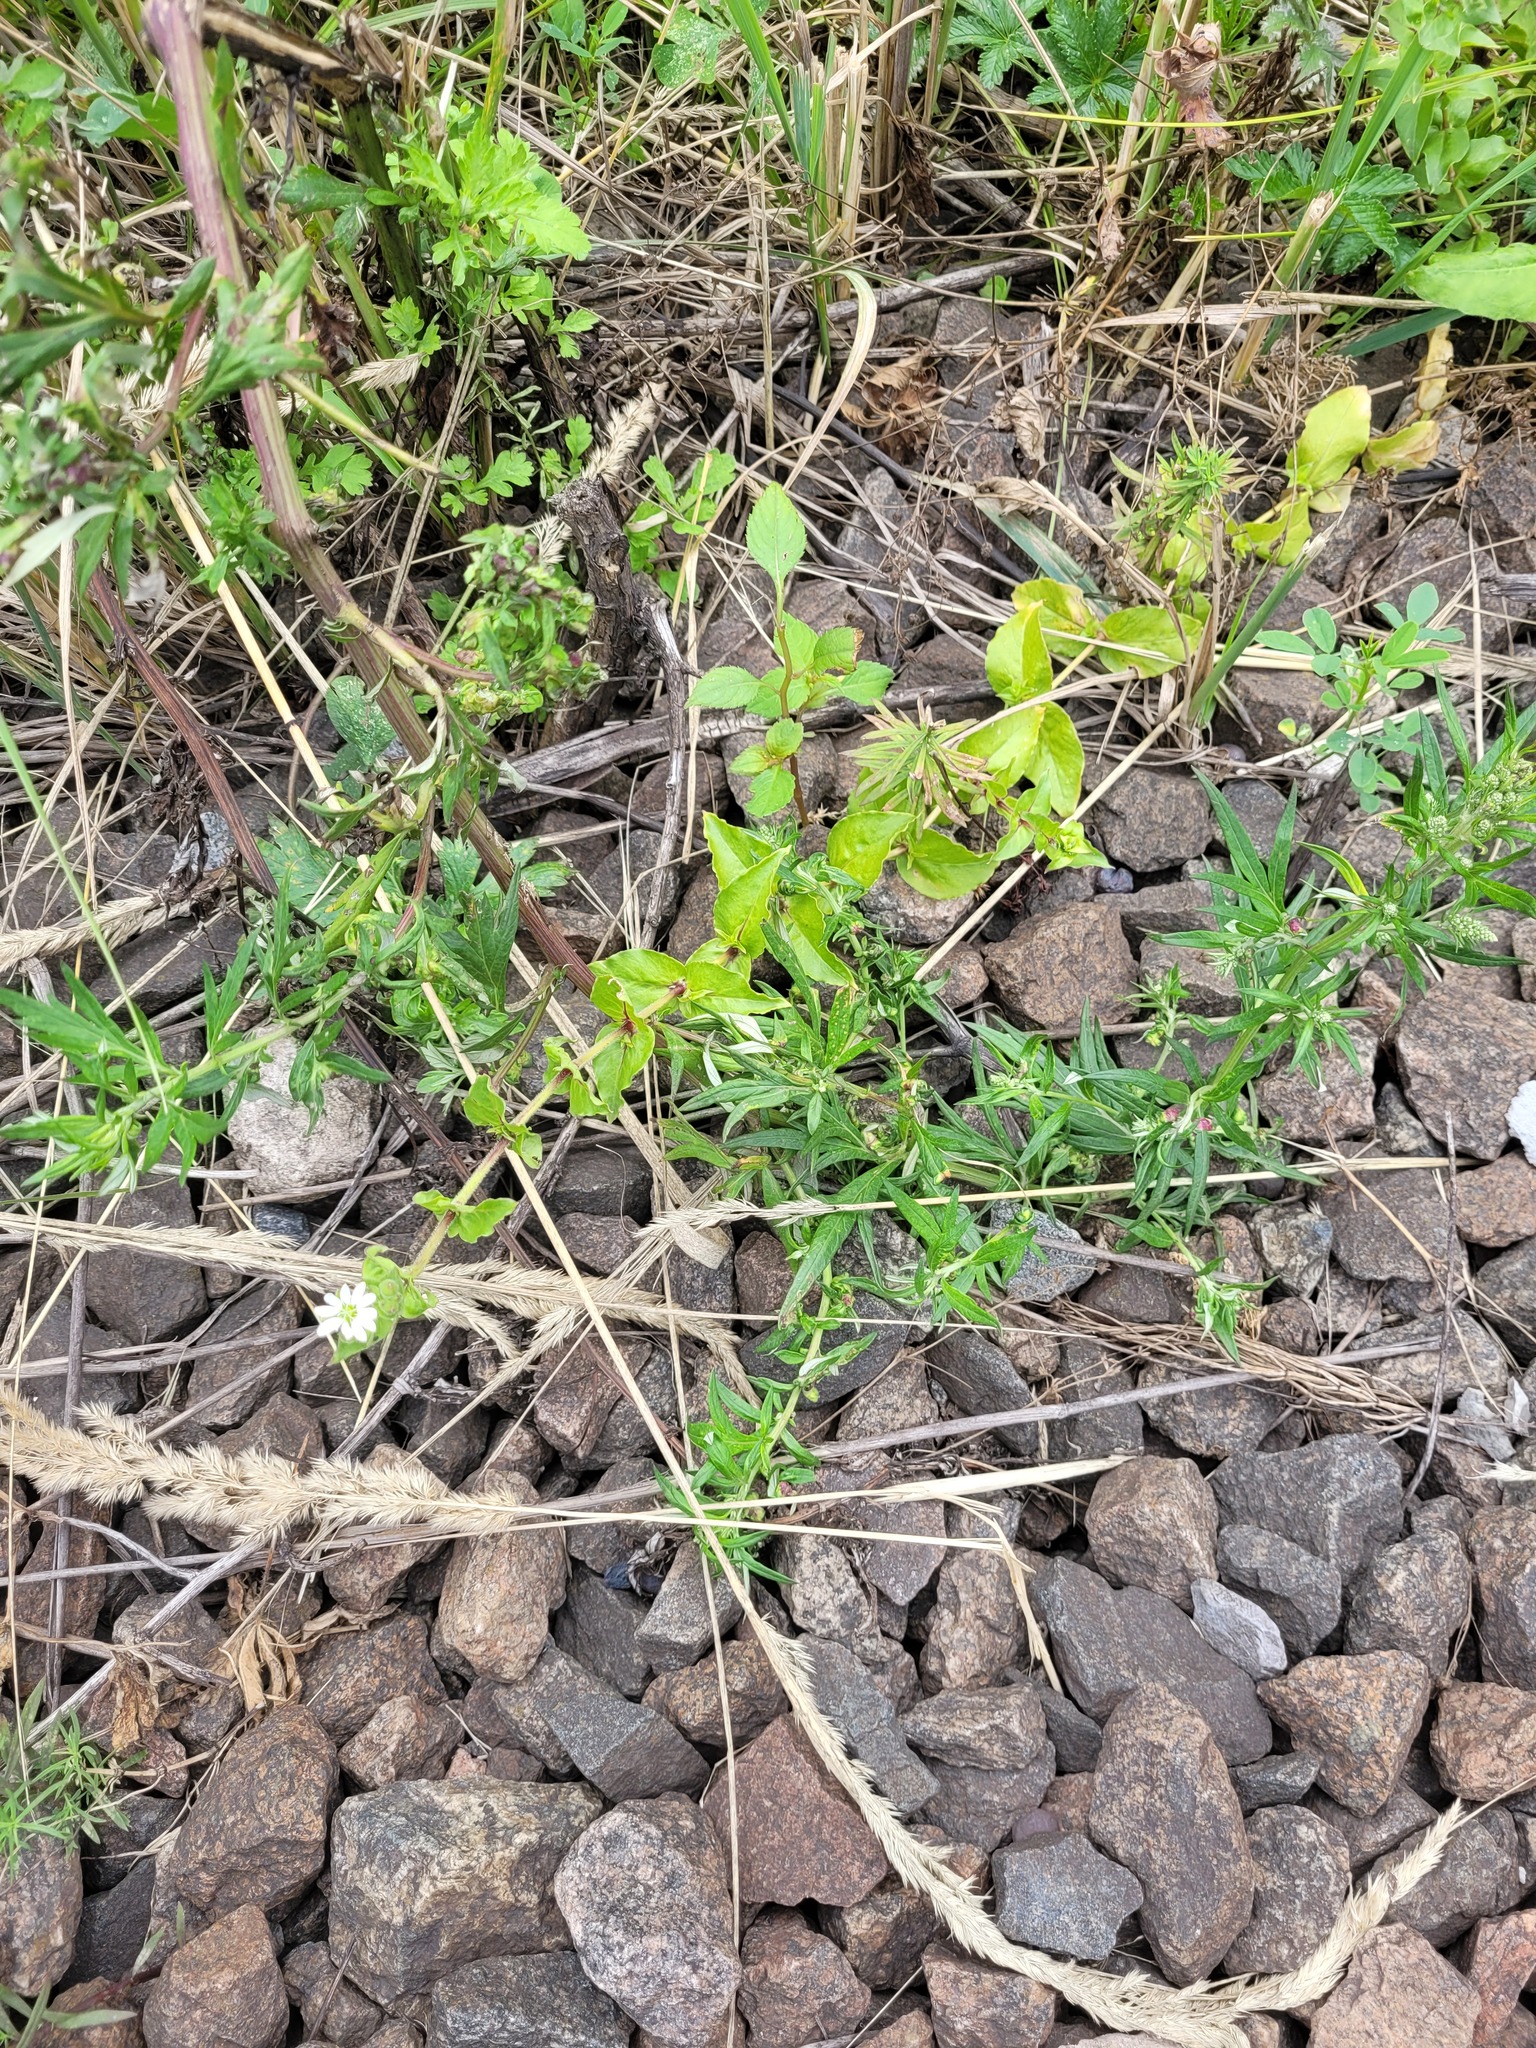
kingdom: Plantae
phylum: Tracheophyta
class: Magnoliopsida
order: Caryophyllales
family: Caryophyllaceae
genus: Stellaria
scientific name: Stellaria aquatica
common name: Water chickweed
